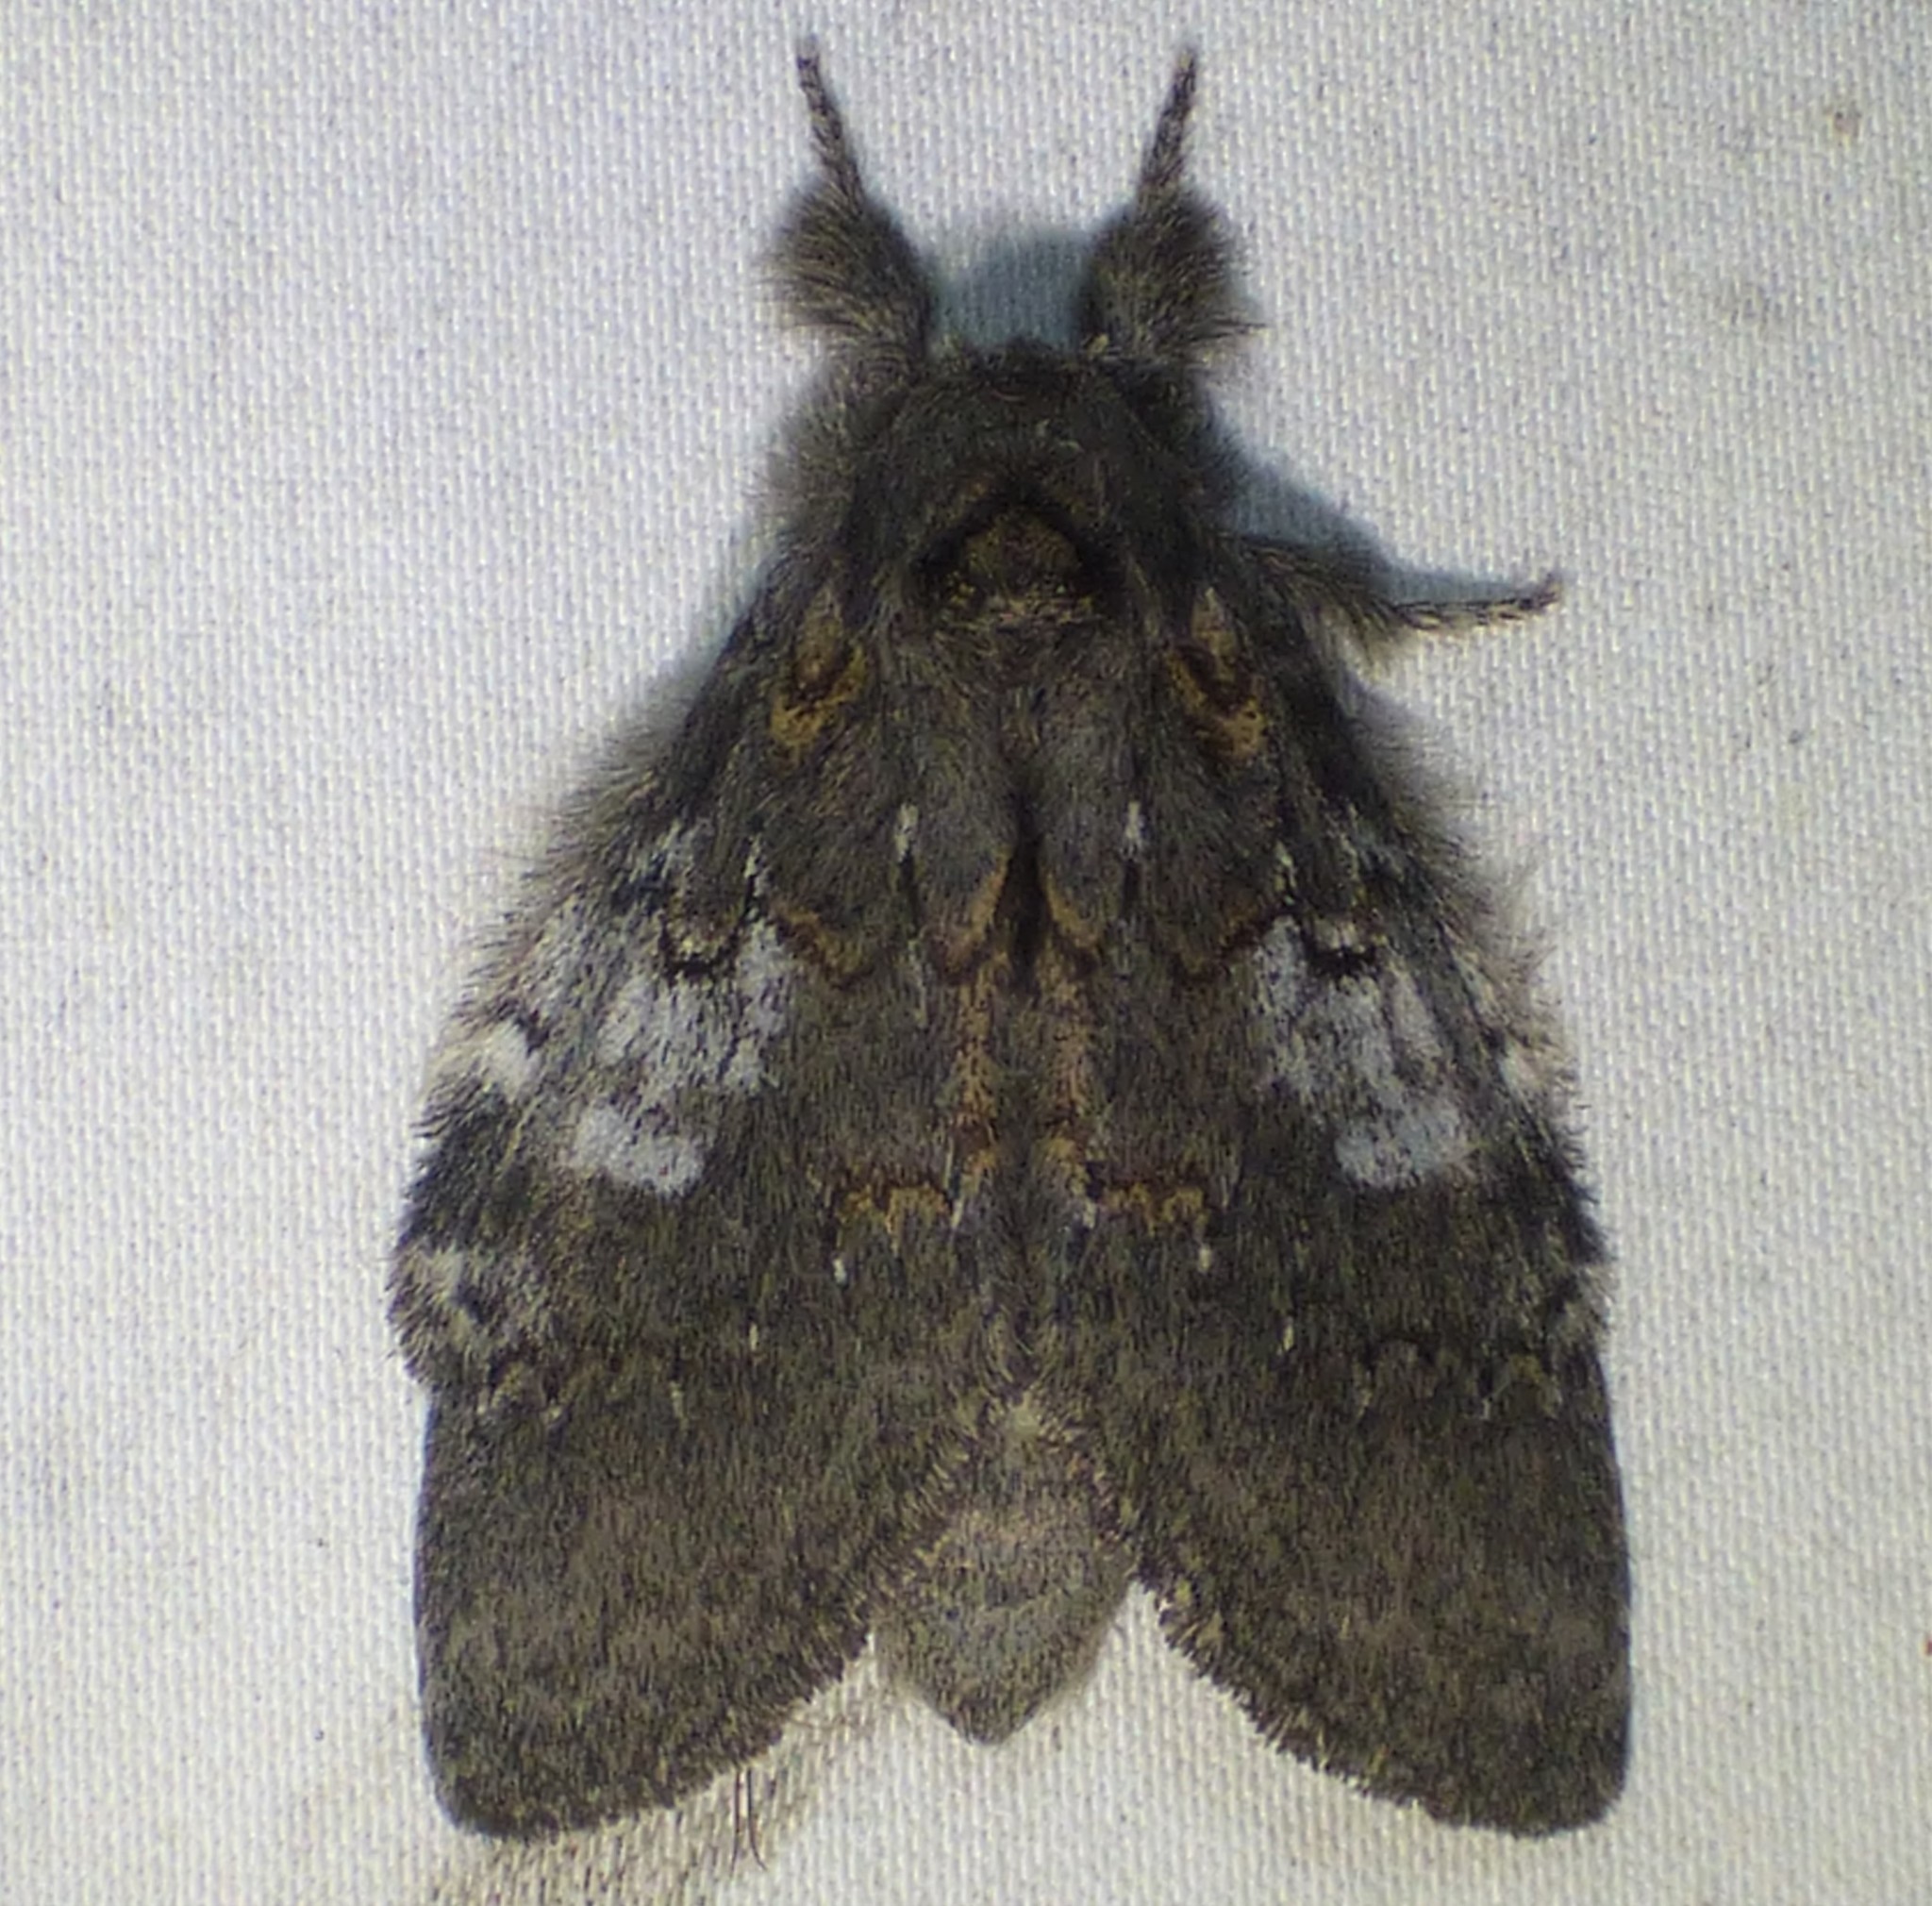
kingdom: Animalia
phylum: Arthropoda
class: Insecta
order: Lepidoptera
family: Notodontidae
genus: Peridea
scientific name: Peridea angulosa
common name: Angulose prominent
